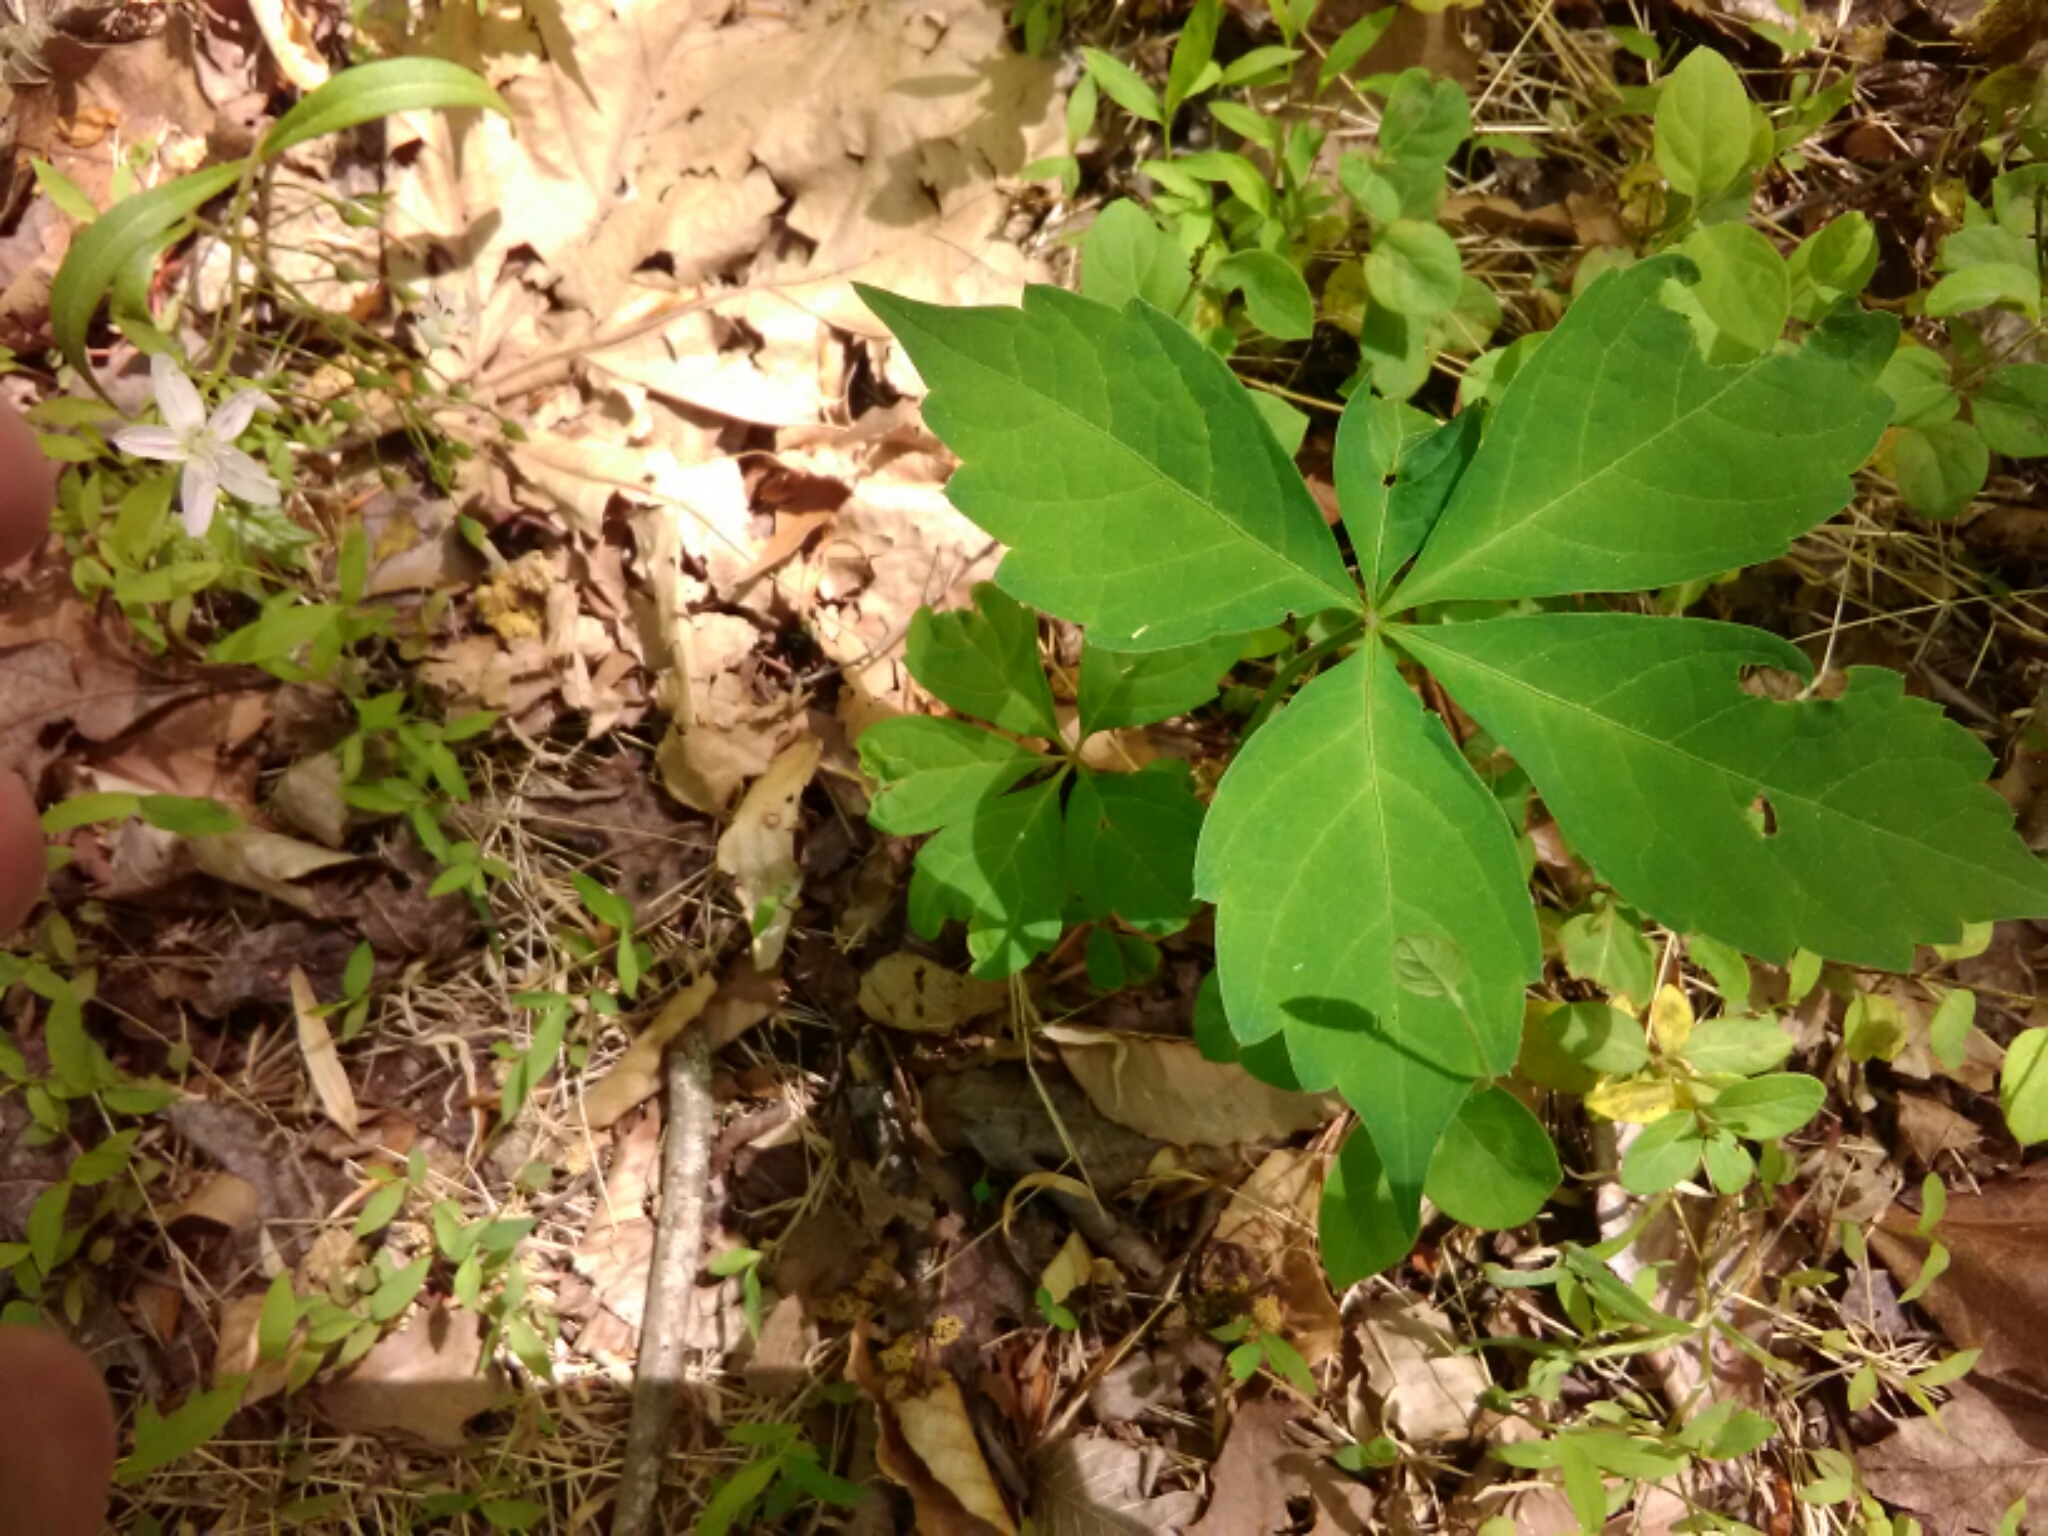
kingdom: Plantae
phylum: Tracheophyta
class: Magnoliopsida
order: Vitales
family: Vitaceae
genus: Parthenocissus
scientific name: Parthenocissus quinquefolia
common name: Virginia-creeper
